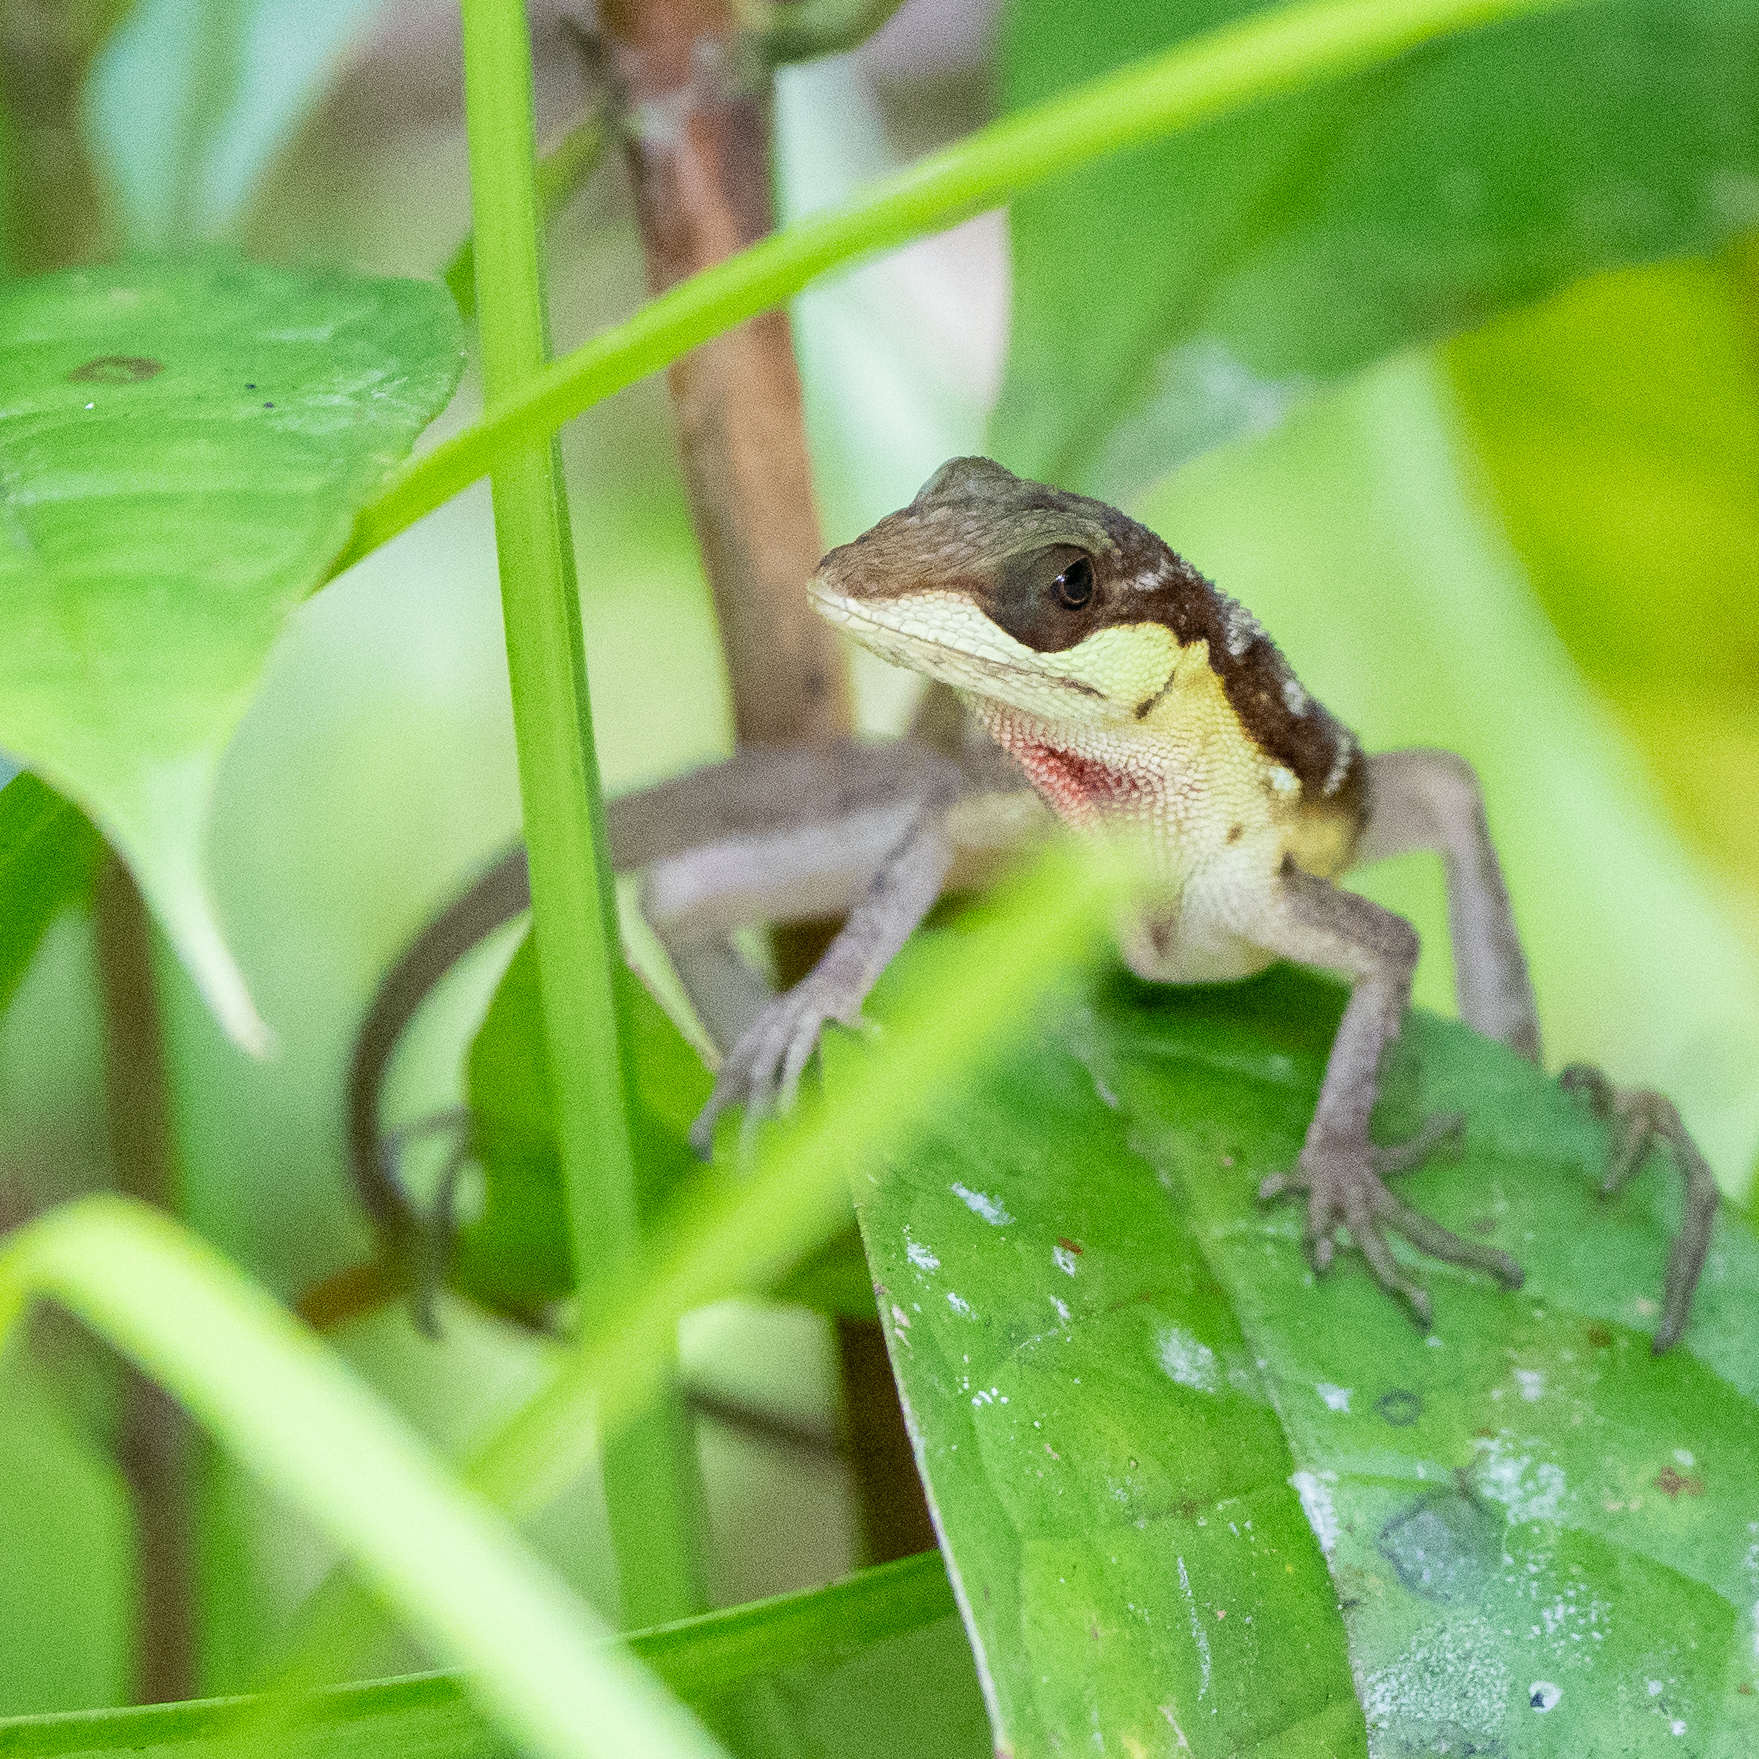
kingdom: Animalia
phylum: Chordata
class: Squamata
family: Dactyloidae
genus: Anolis
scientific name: Anolis notopholis
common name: Scalyback anole
